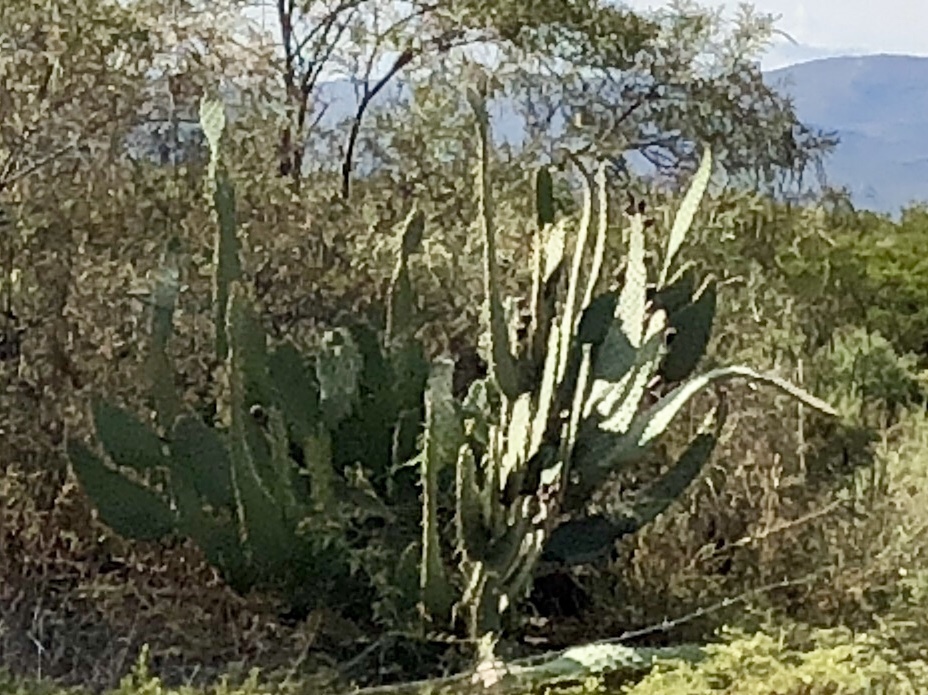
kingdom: Plantae
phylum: Tracheophyta
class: Magnoliopsida
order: Caryophyllales
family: Cactaceae
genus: Opuntia
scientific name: Opuntia engelmannii
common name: Cactus-apple
